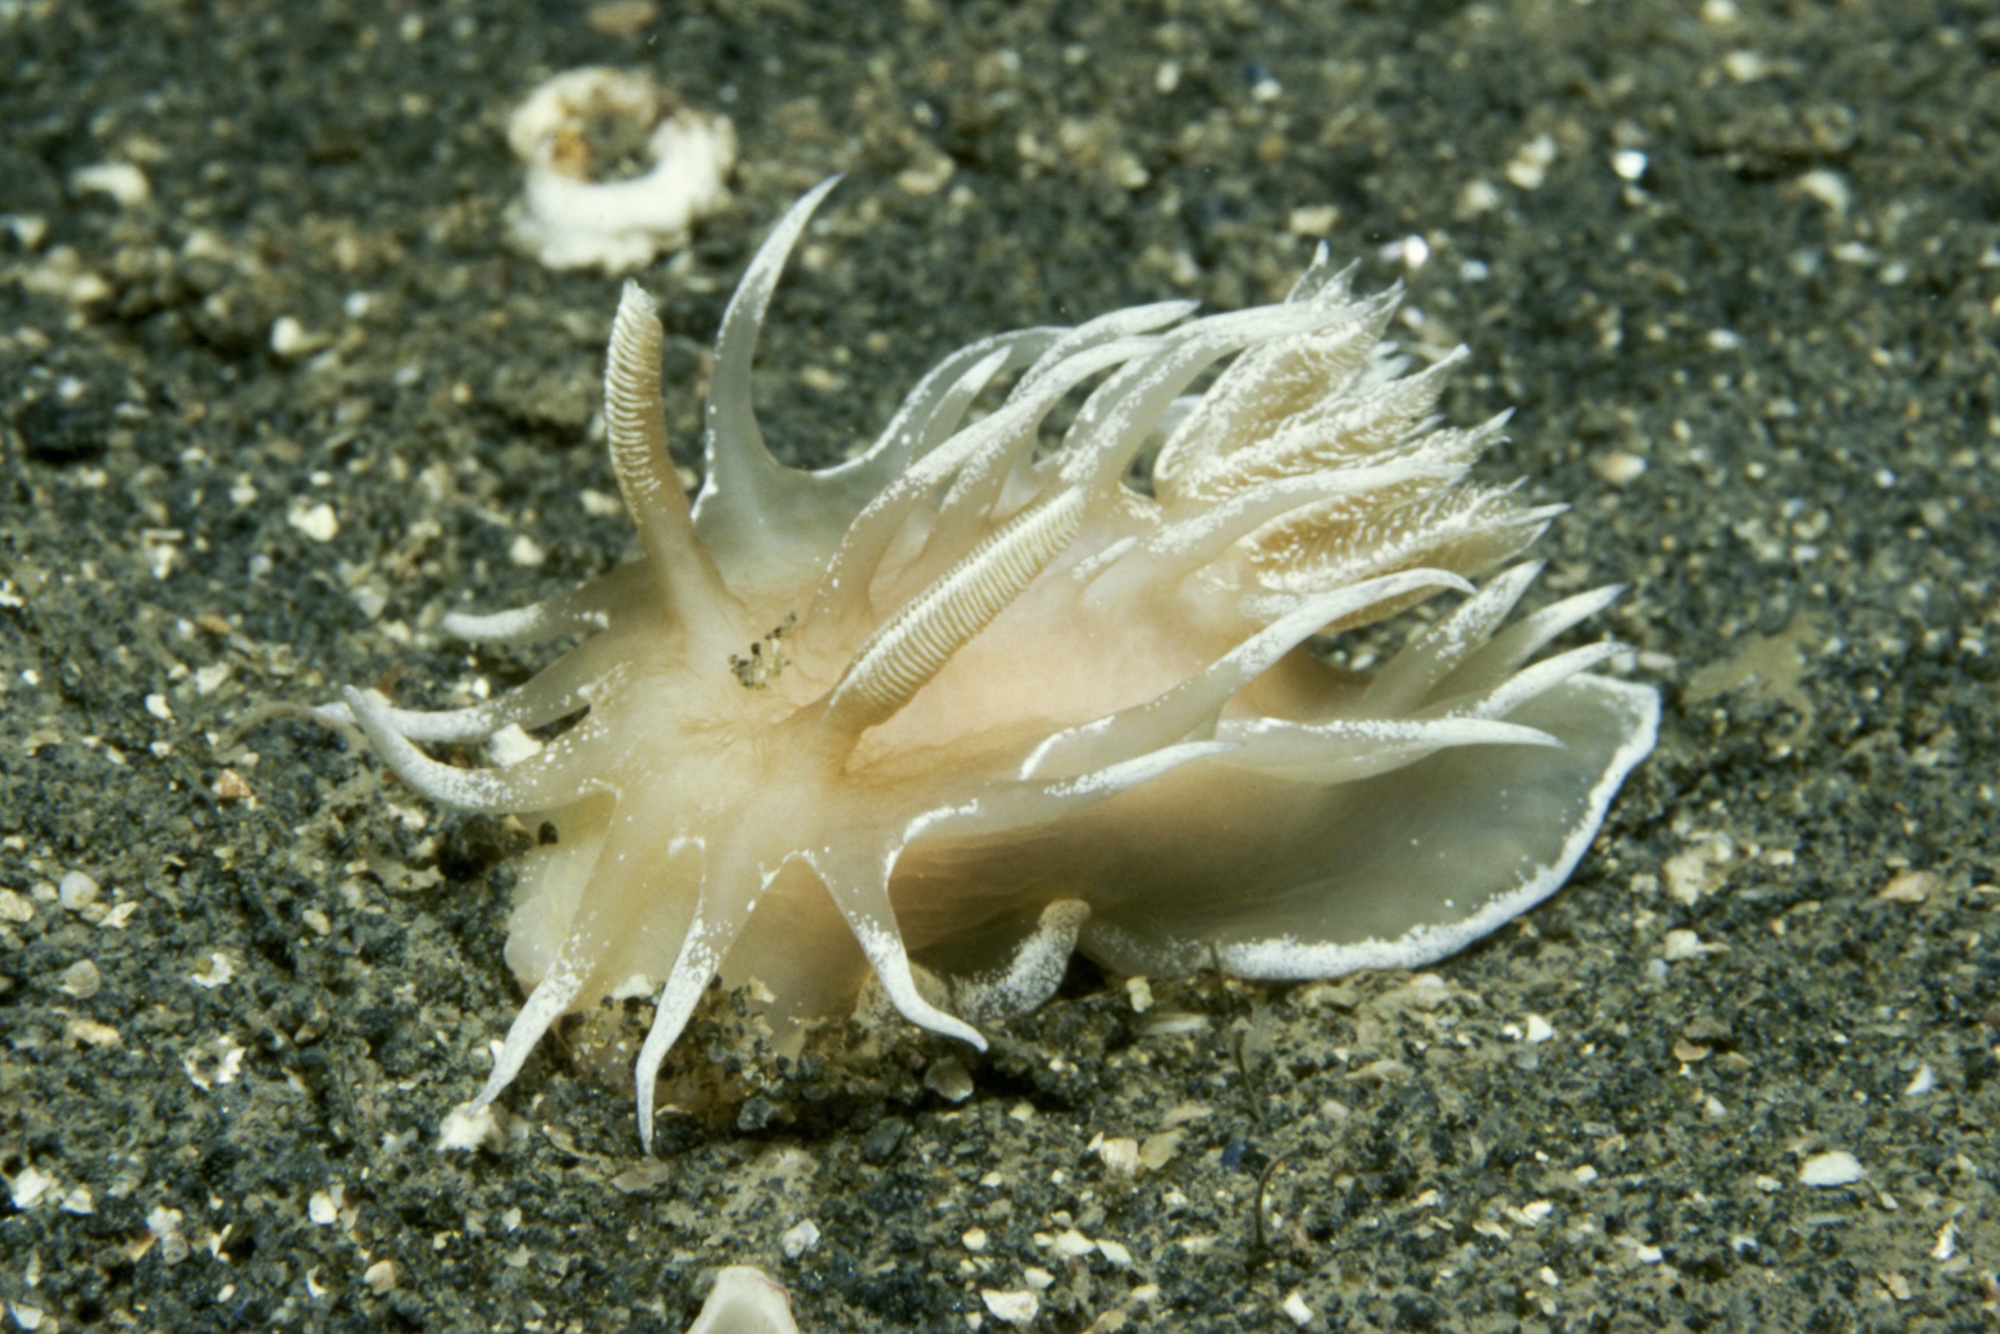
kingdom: Animalia
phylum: Mollusca
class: Gastropoda
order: Nudibranchia
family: Goniodorididae
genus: Okenia
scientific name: Okenia leachii
